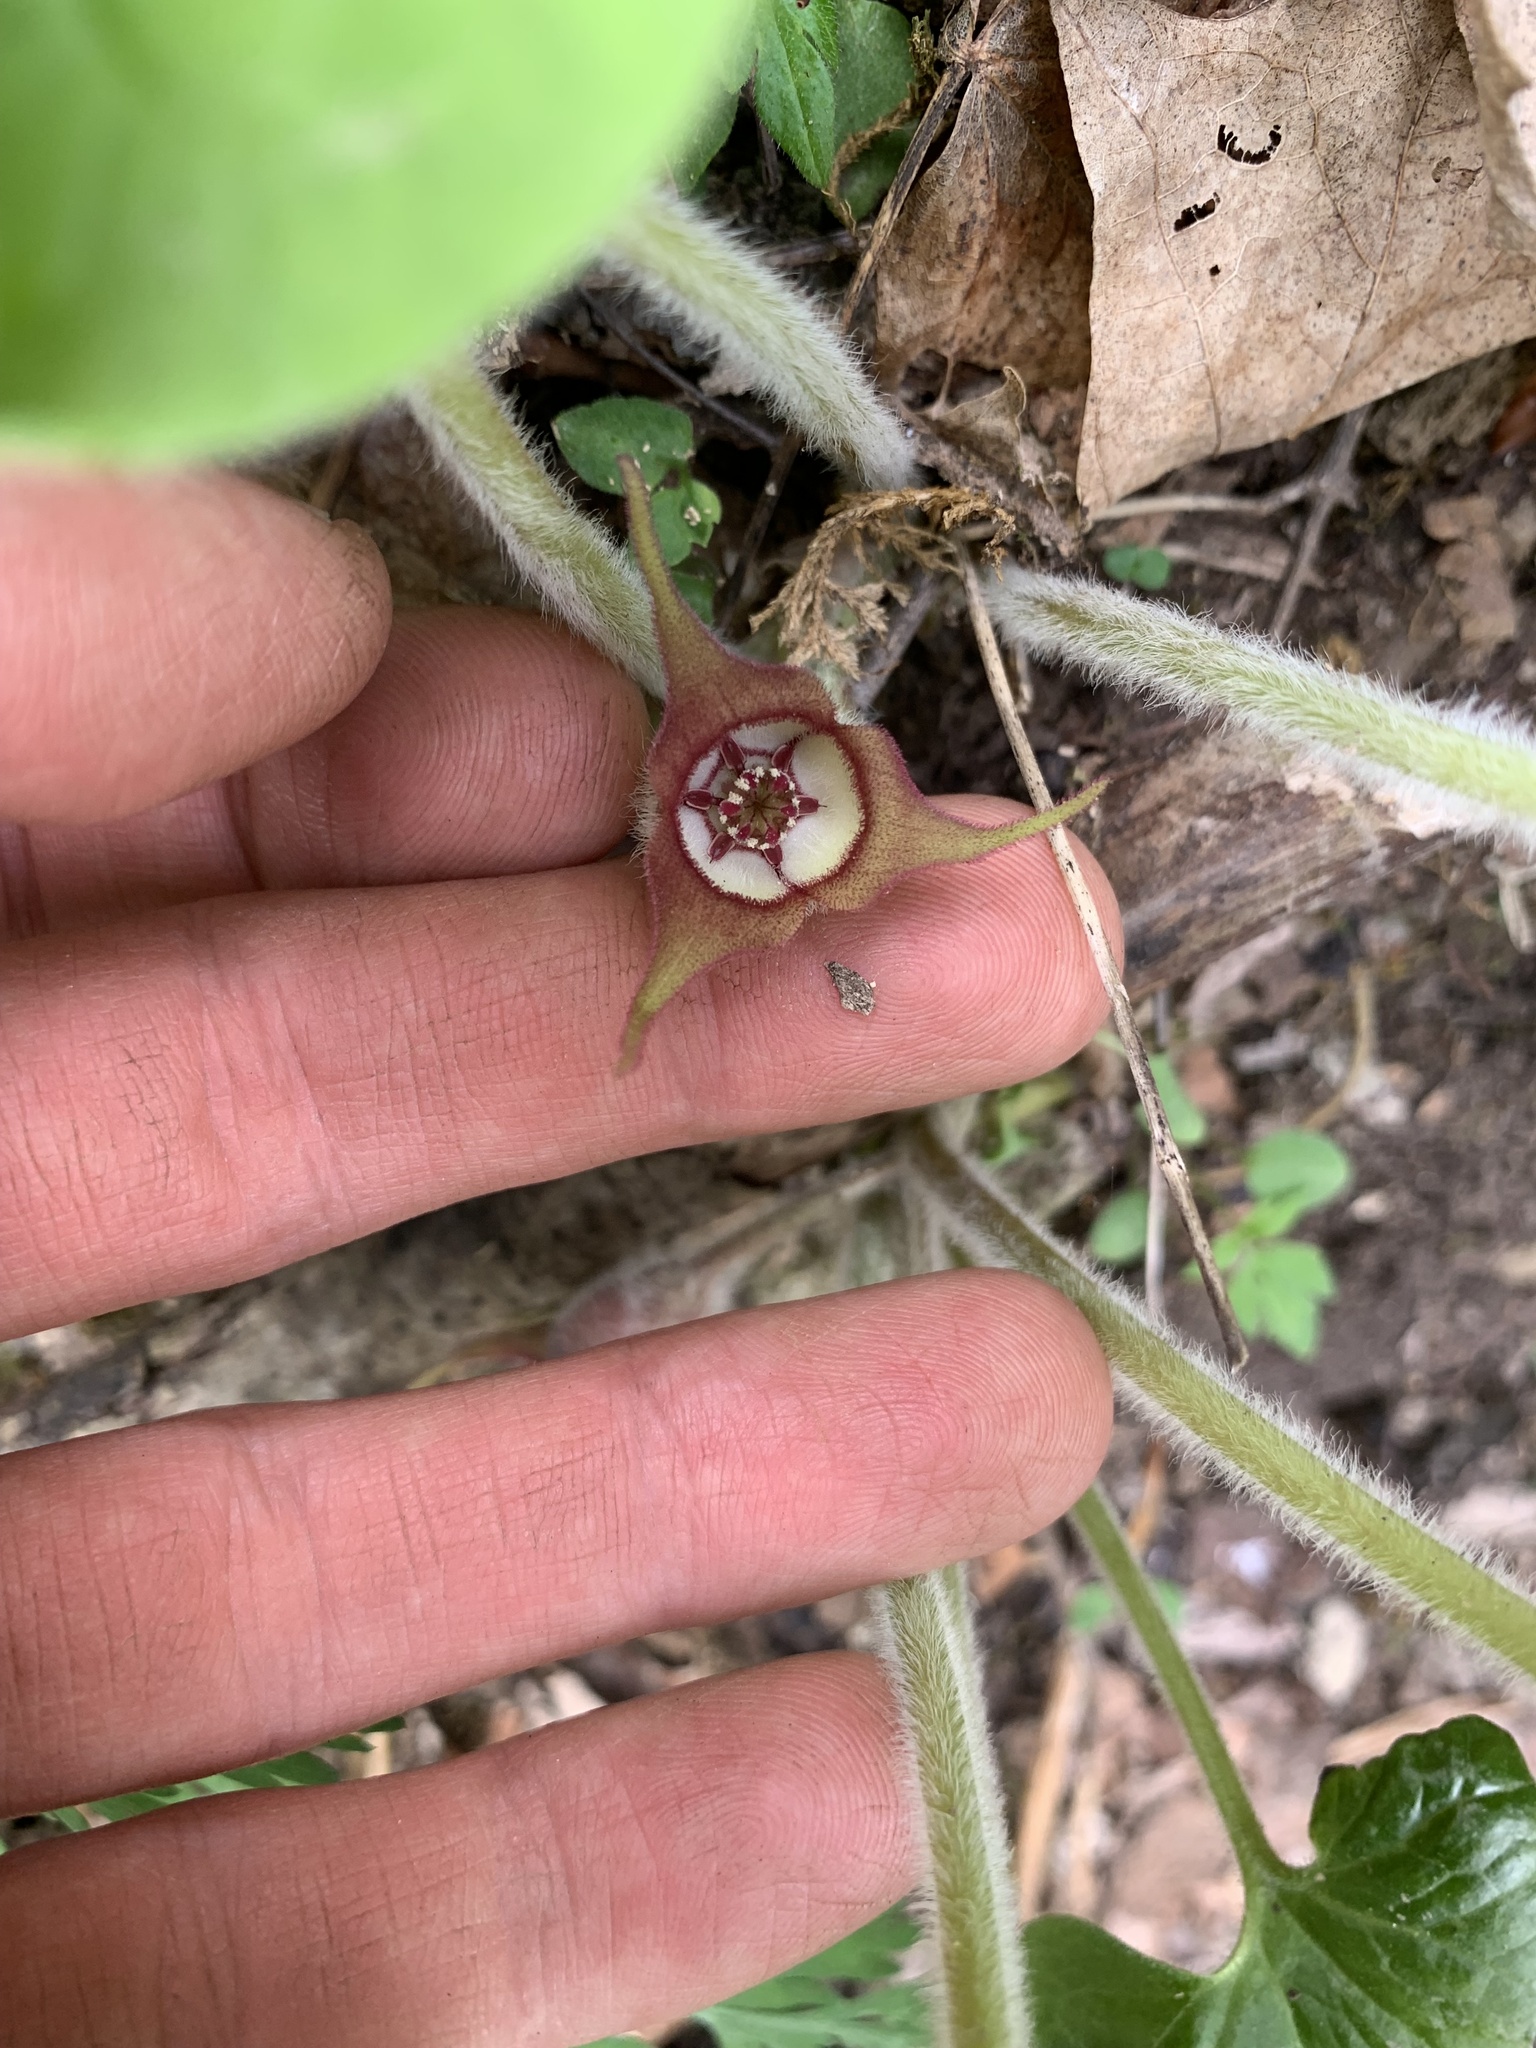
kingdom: Plantae
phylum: Tracheophyta
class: Magnoliopsida
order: Piperales
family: Aristolochiaceae
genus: Asarum
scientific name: Asarum canadense
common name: Wild ginger
